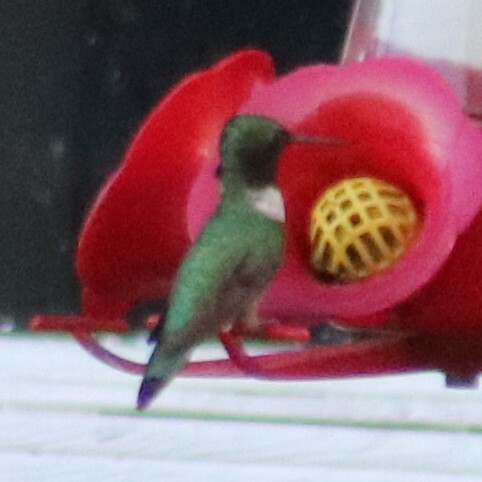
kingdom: Animalia
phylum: Chordata
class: Aves
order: Apodiformes
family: Trochilidae
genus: Archilochus
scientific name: Archilochus colubris
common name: Ruby-throated hummingbird
